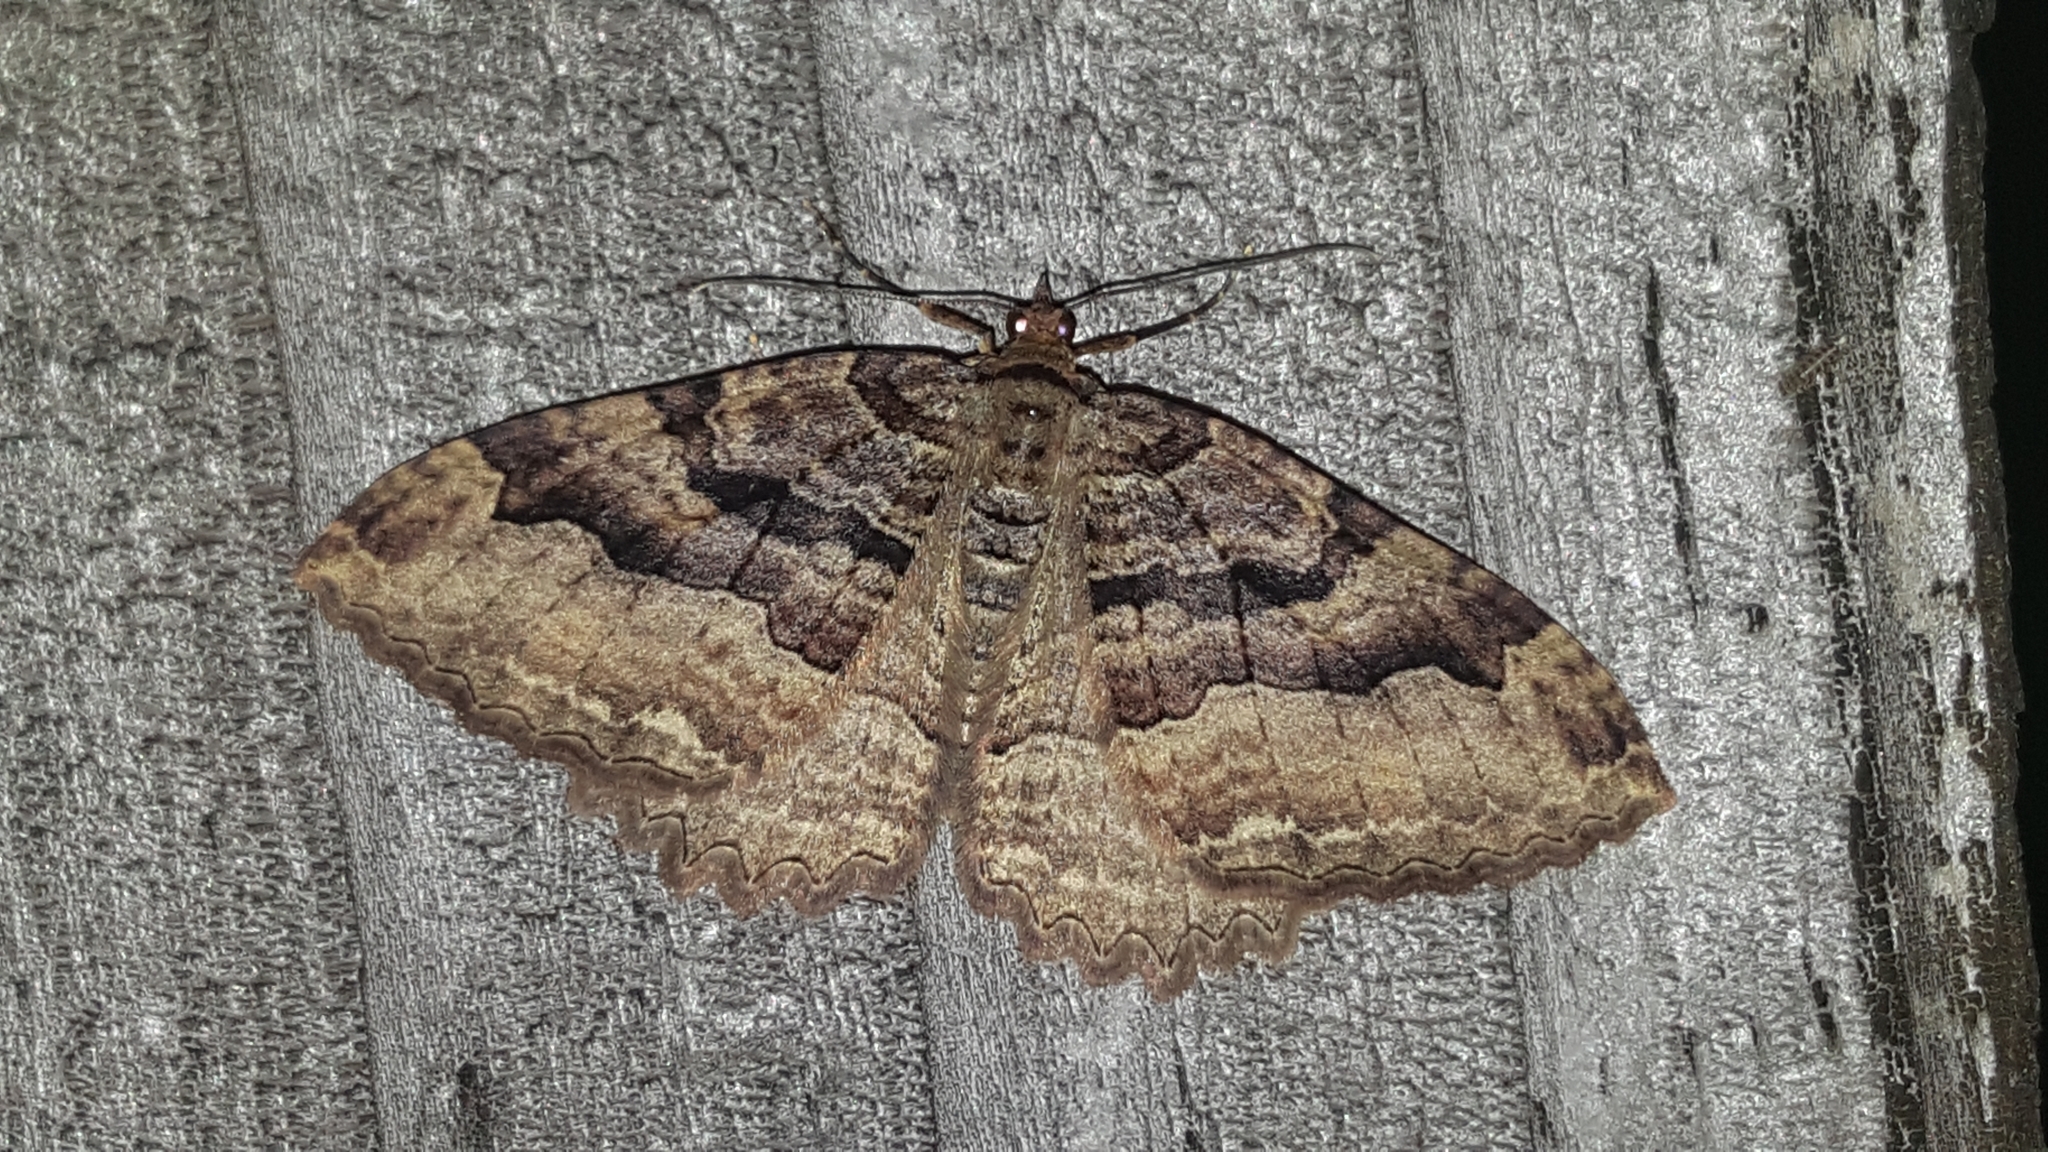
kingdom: Animalia
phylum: Arthropoda
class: Insecta
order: Lepidoptera
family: Geometridae
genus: Triphosa
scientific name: Triphosa haesitata
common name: Tissue moth
